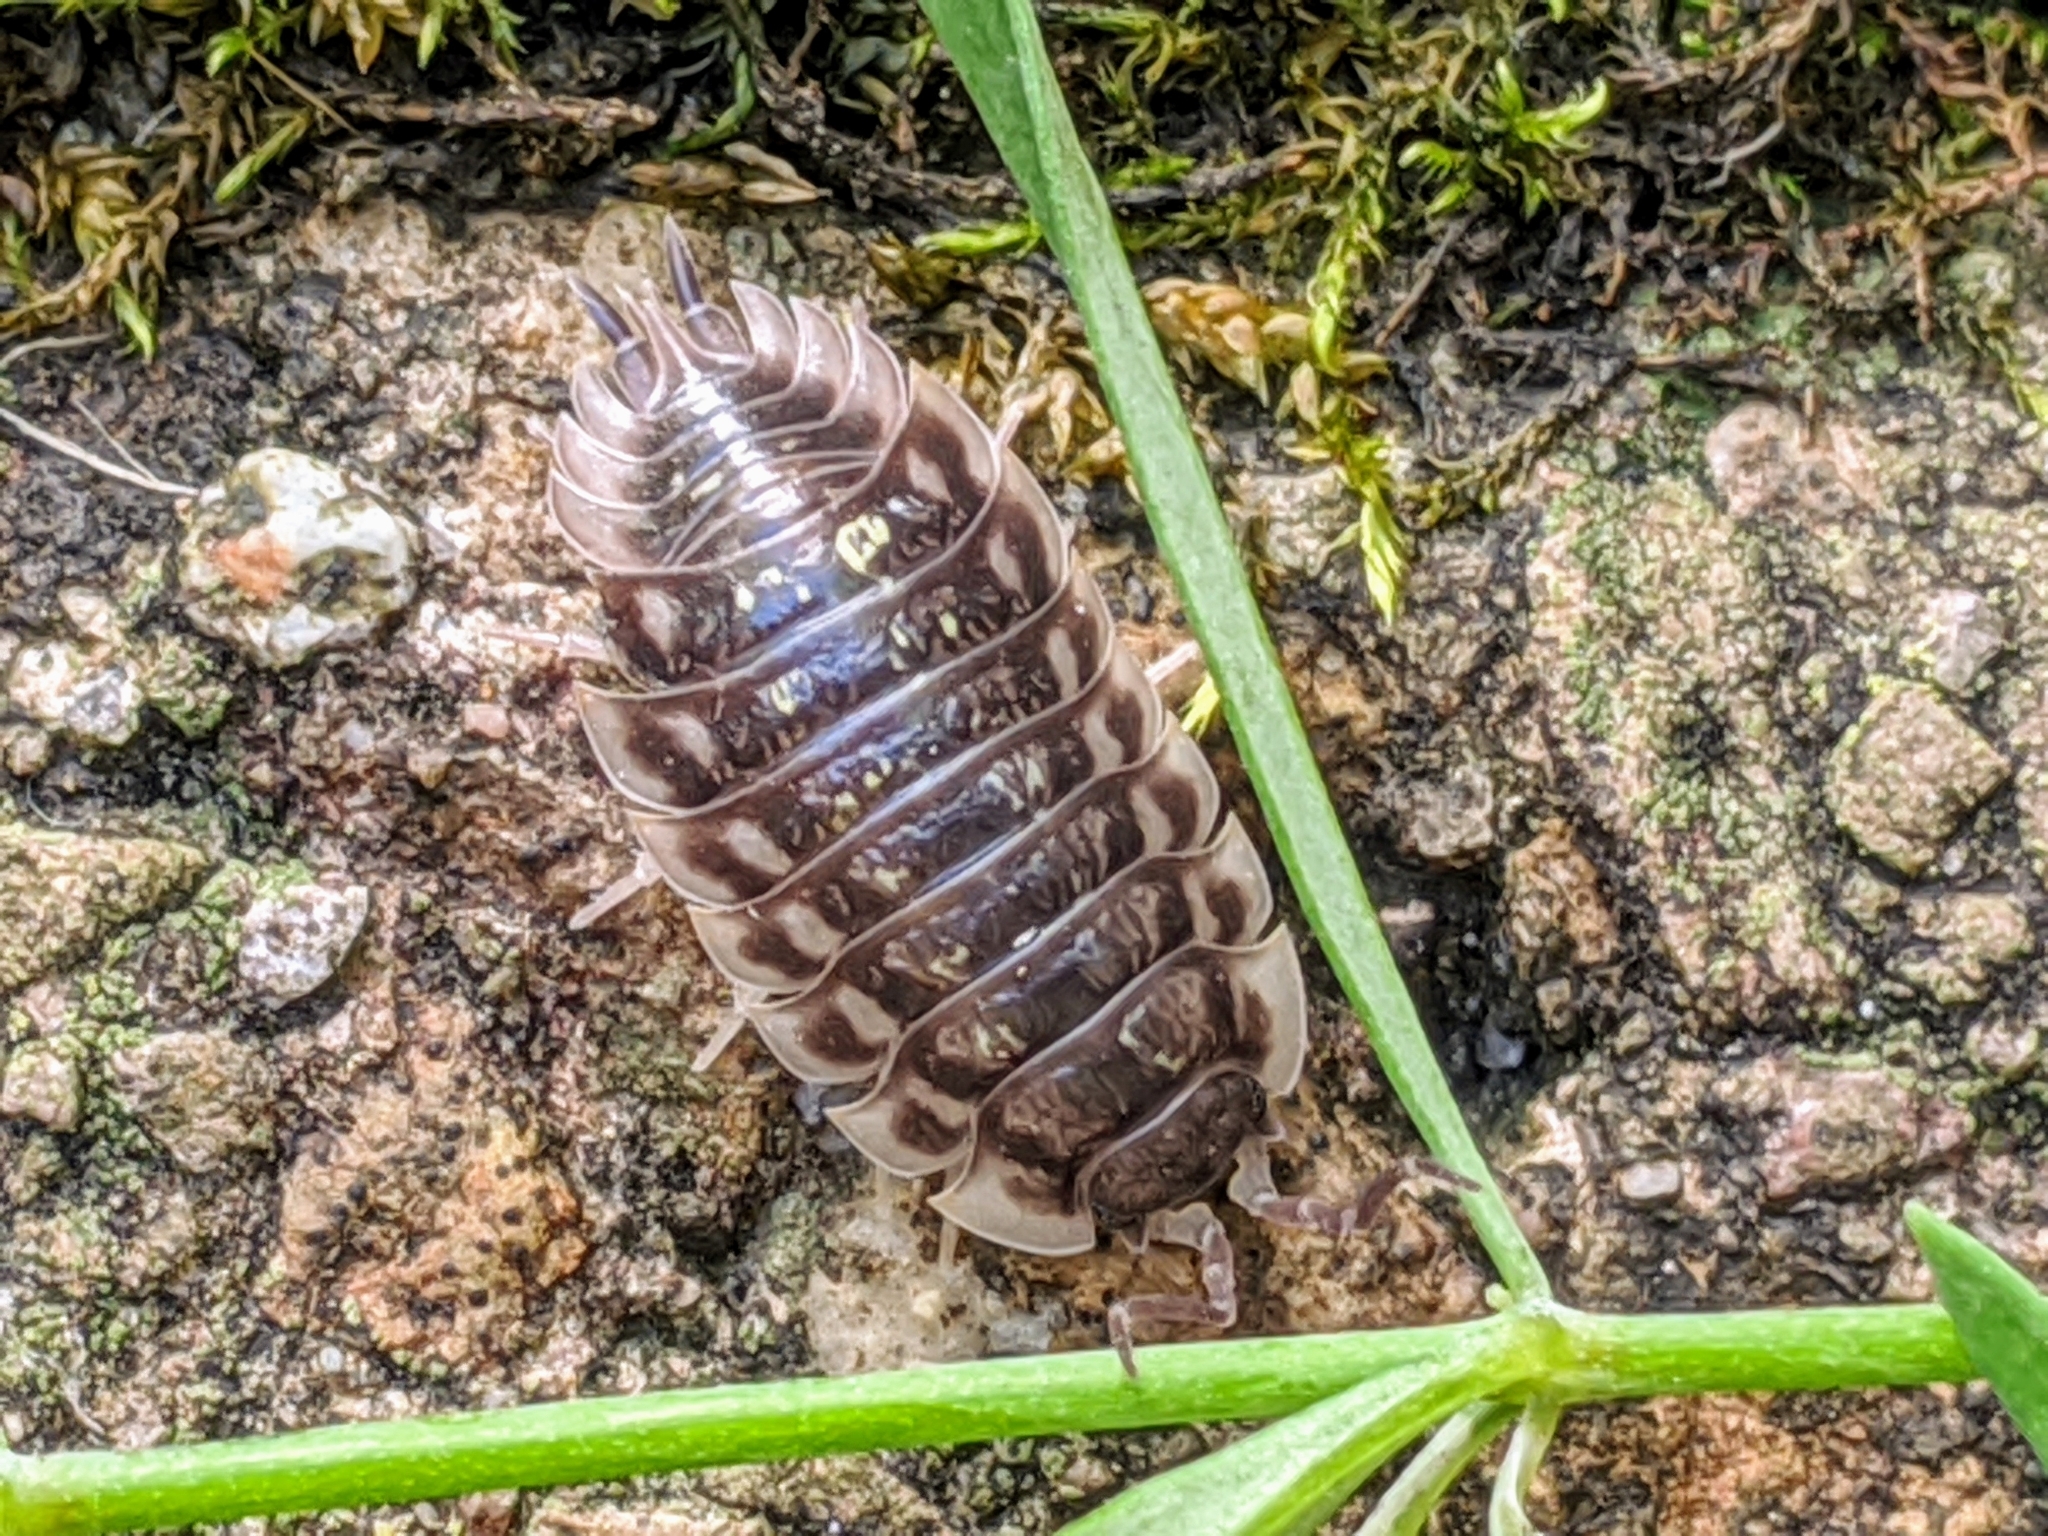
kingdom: Animalia
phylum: Arthropoda
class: Malacostraca
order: Isopoda
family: Oniscidae
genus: Oniscus
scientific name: Oniscus asellus
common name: Common shiny woodlouse
